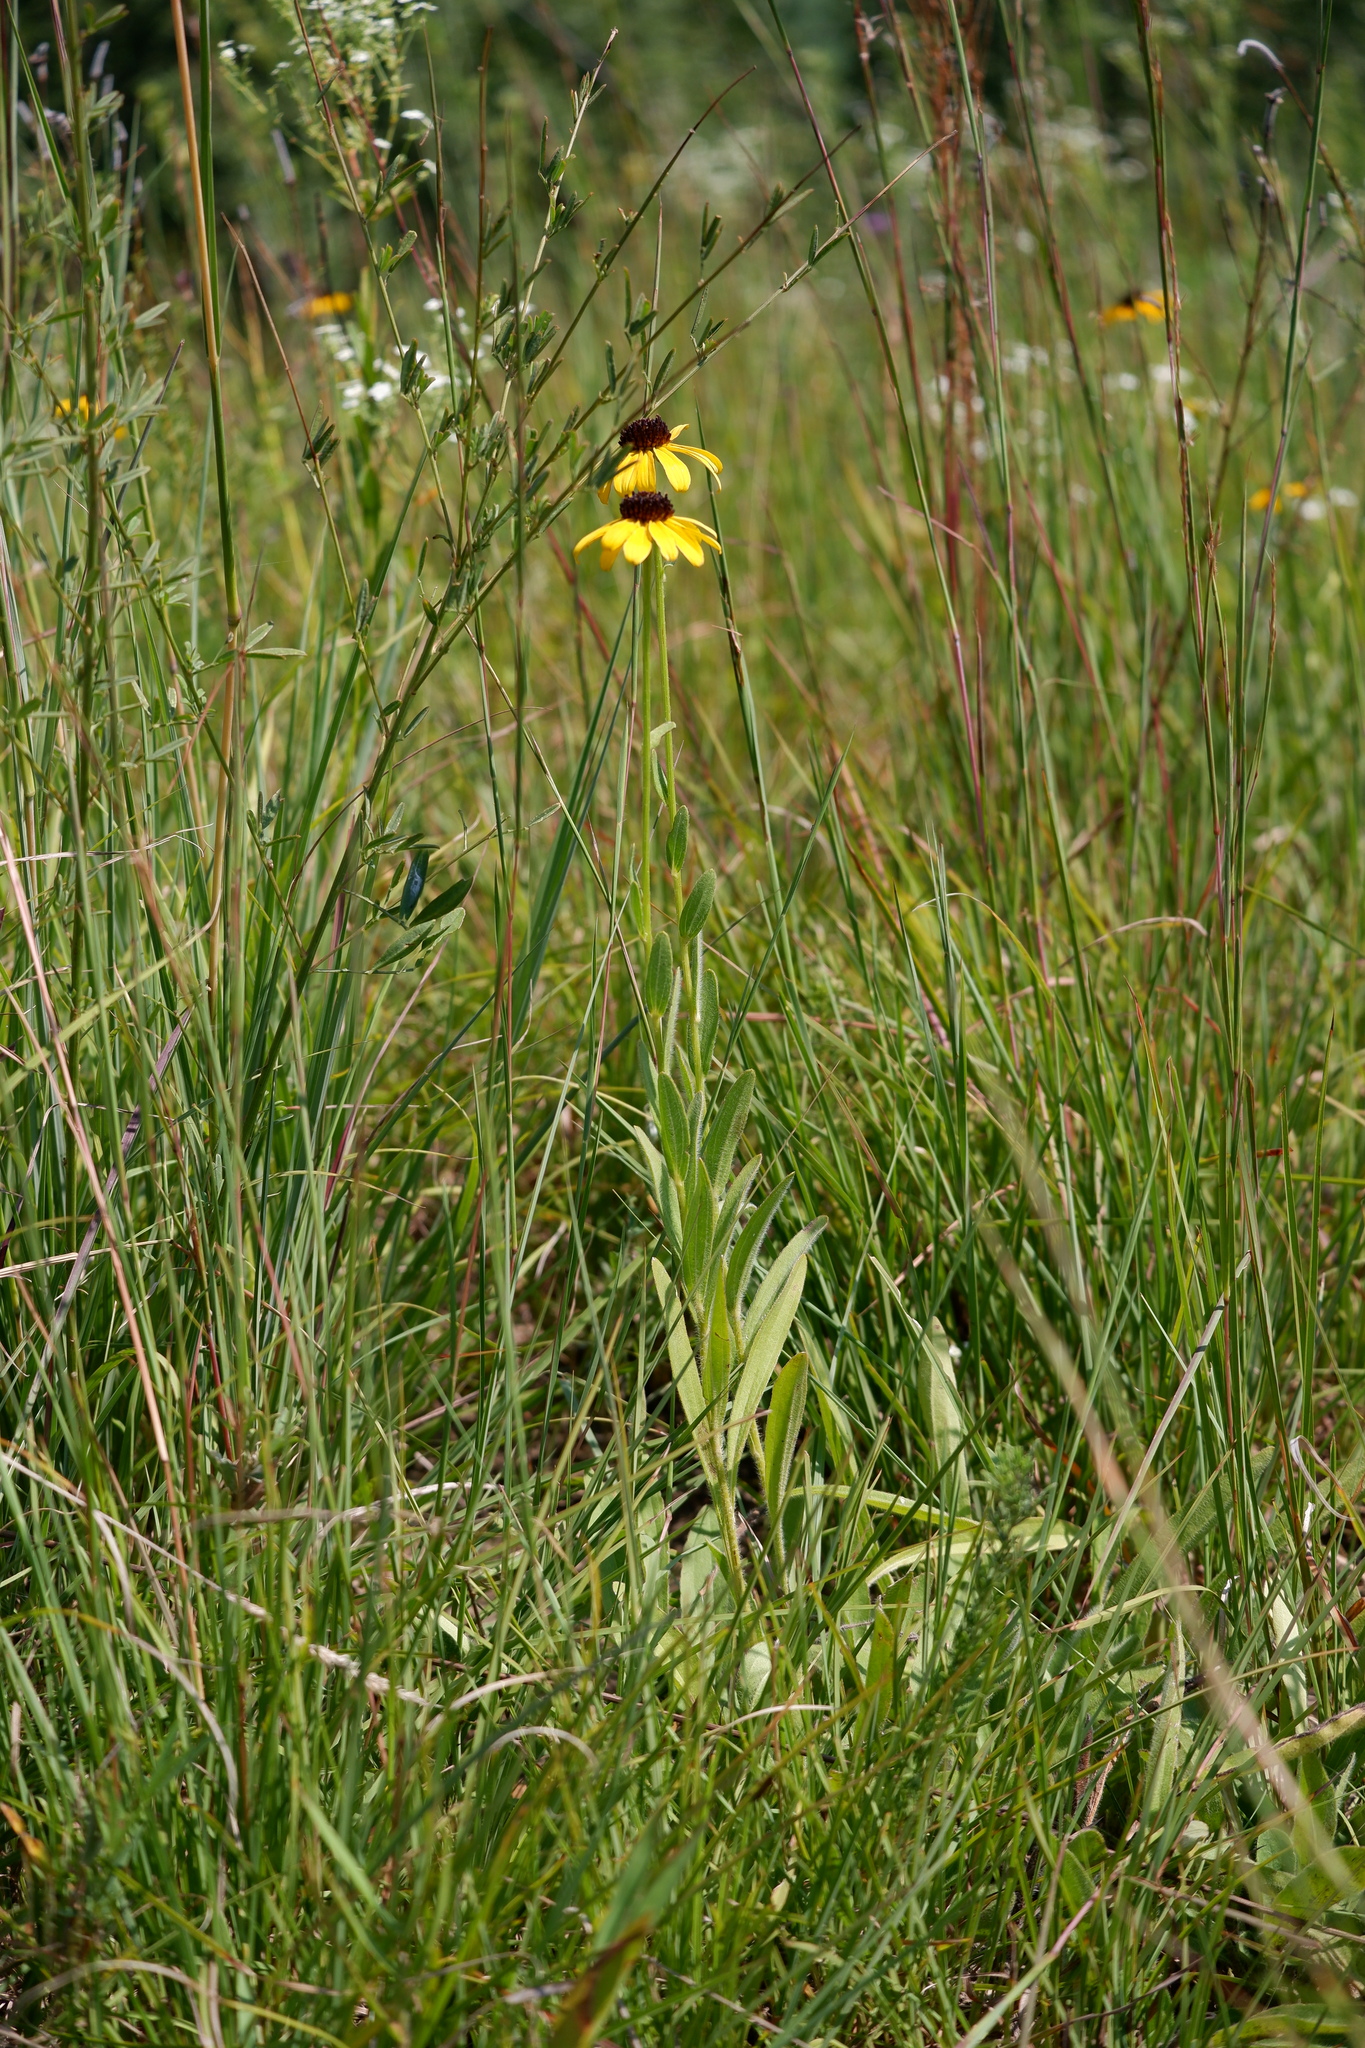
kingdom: Plantae
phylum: Tracheophyta
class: Magnoliopsida
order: Asterales
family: Asteraceae
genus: Rudbeckia
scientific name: Rudbeckia missouriensis
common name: Missouri coneflower
